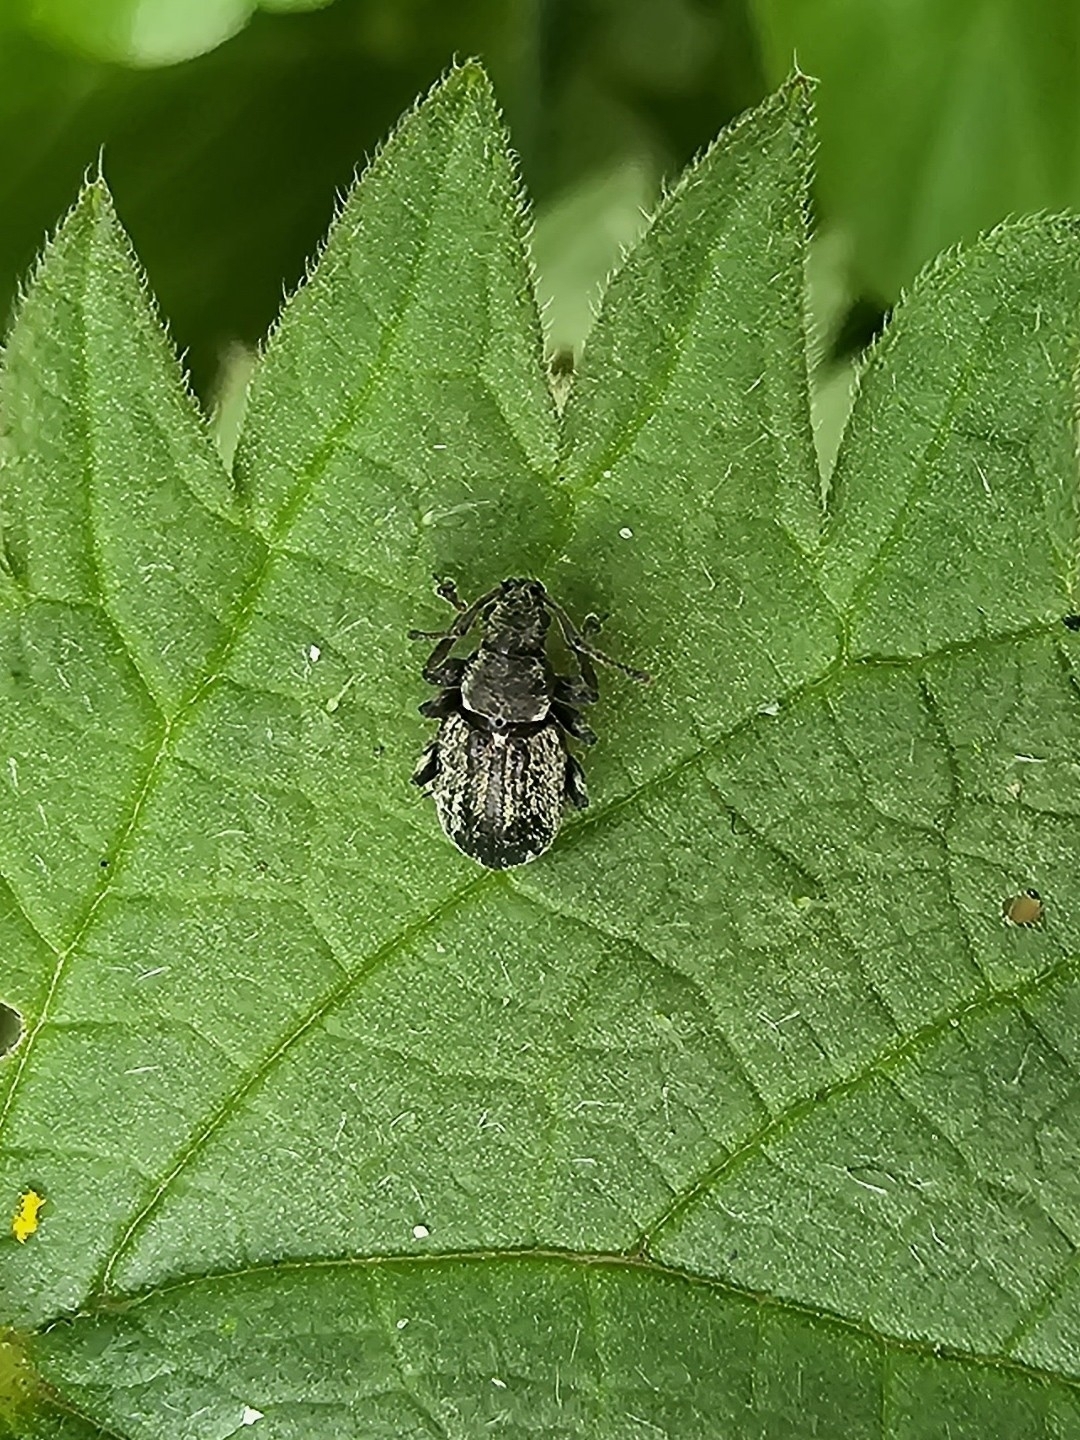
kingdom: Animalia
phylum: Arthropoda
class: Insecta
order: Coleoptera
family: Curculionidae
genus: Phyllobius
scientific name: Phyllobius pyri
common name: Common leaf weevil
